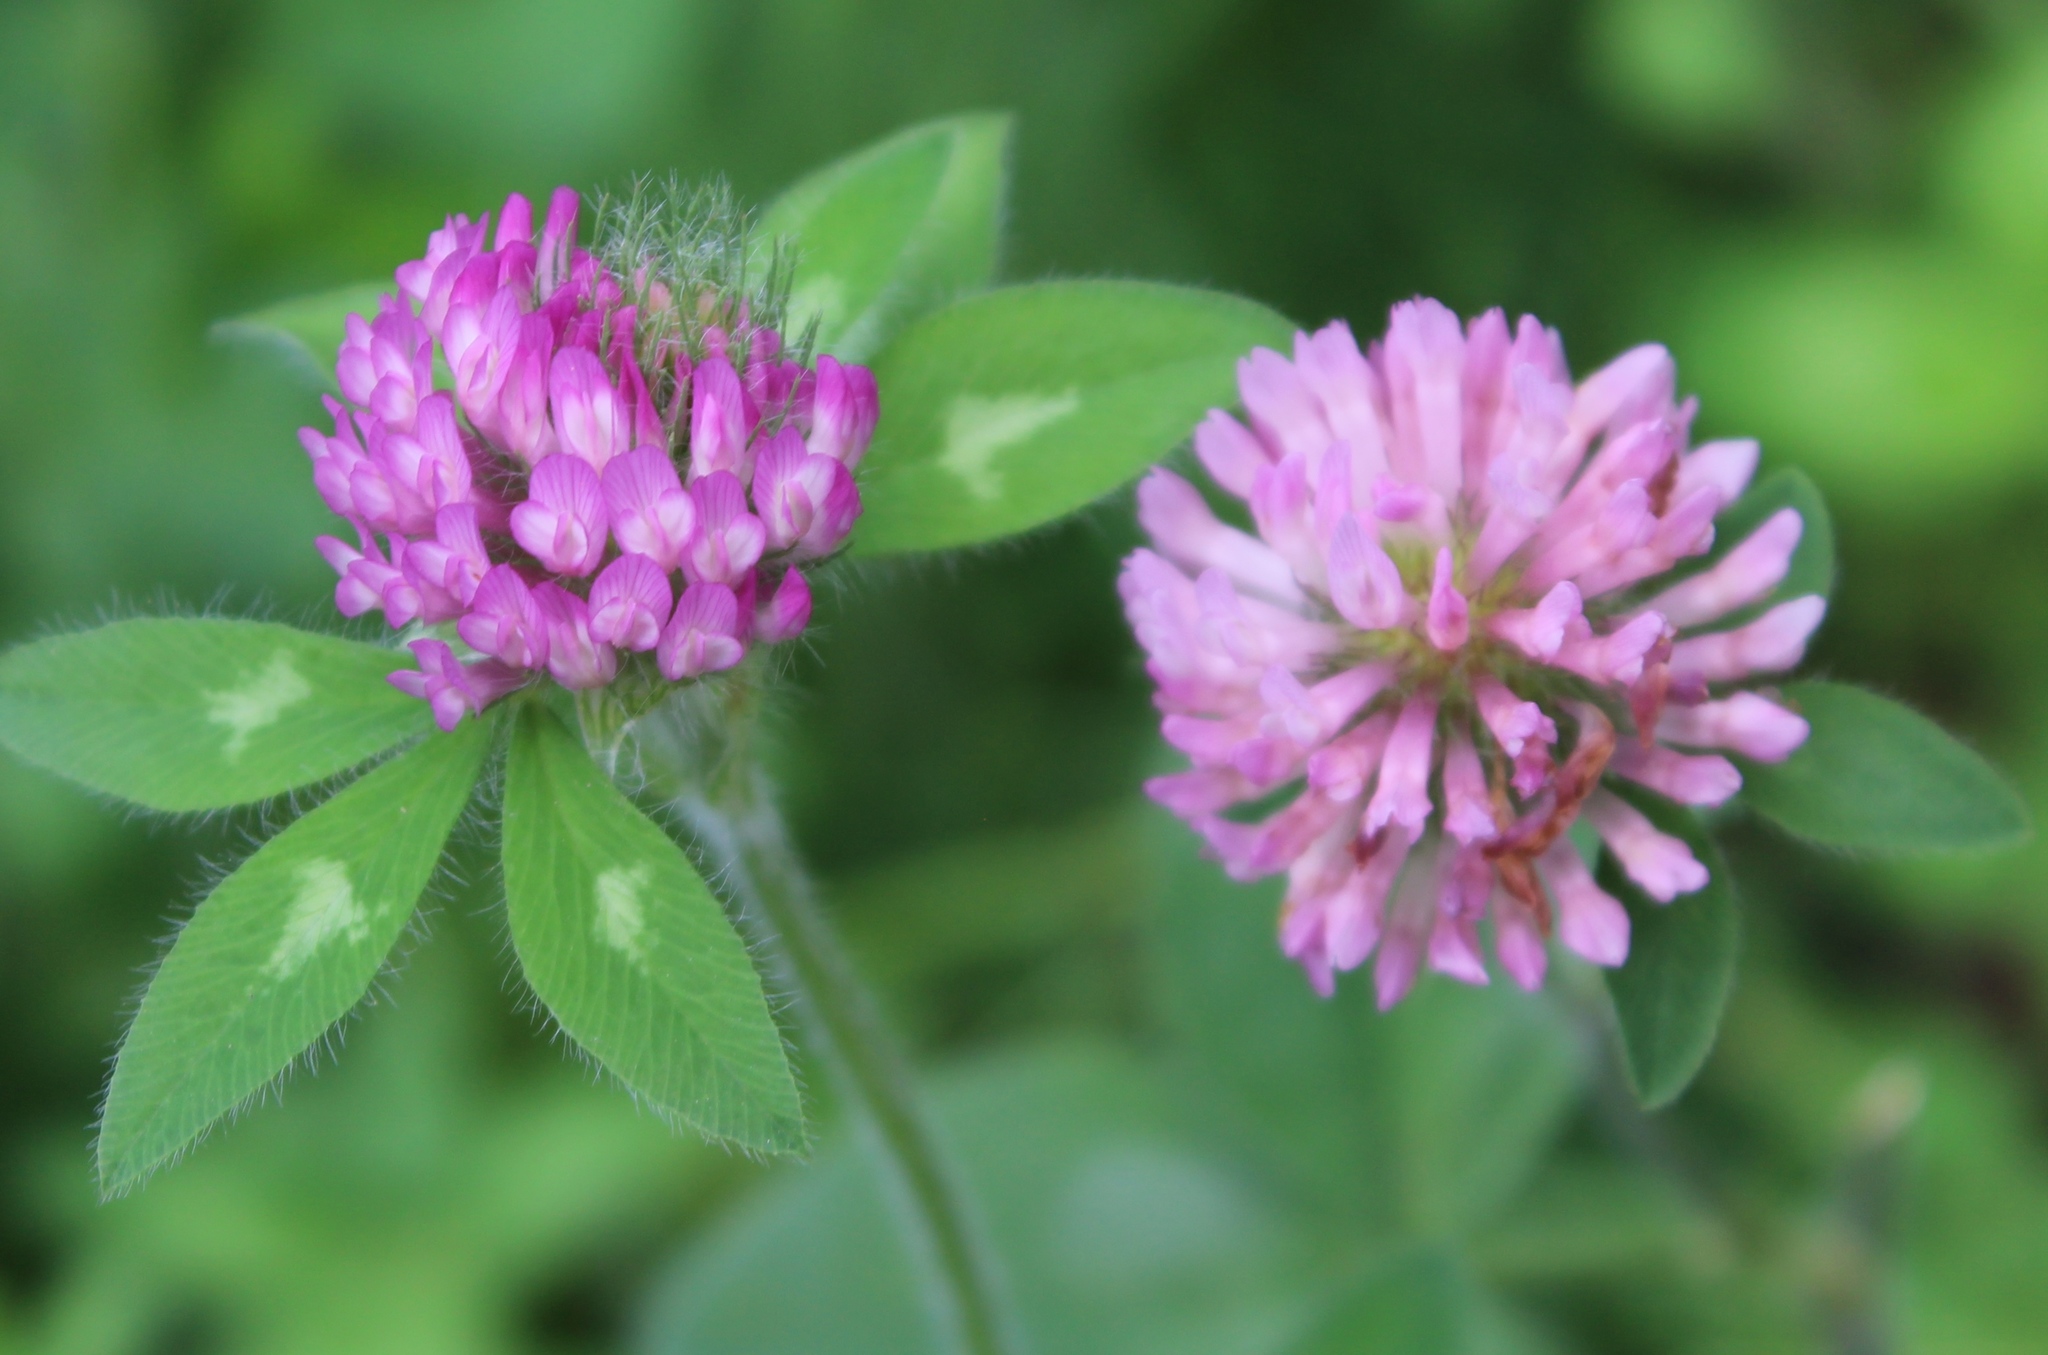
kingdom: Plantae
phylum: Tracheophyta
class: Magnoliopsida
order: Fabales
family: Fabaceae
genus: Trifolium
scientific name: Trifolium pratense
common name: Red clover
